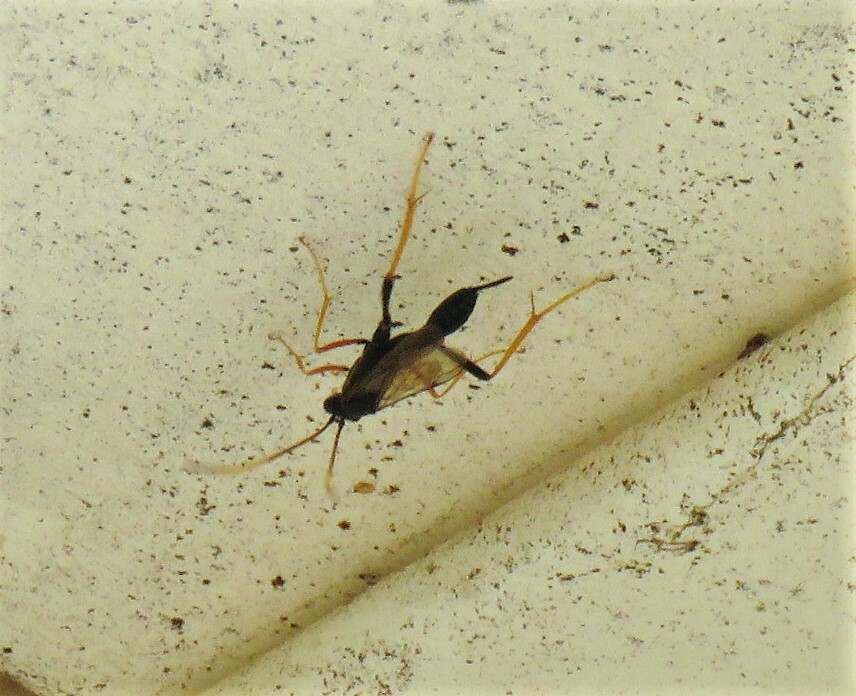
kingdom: Animalia
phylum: Arthropoda
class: Insecta
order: Hymenoptera
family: Ichneumonidae
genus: Acroricnus
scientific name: Acroricnus stylator
